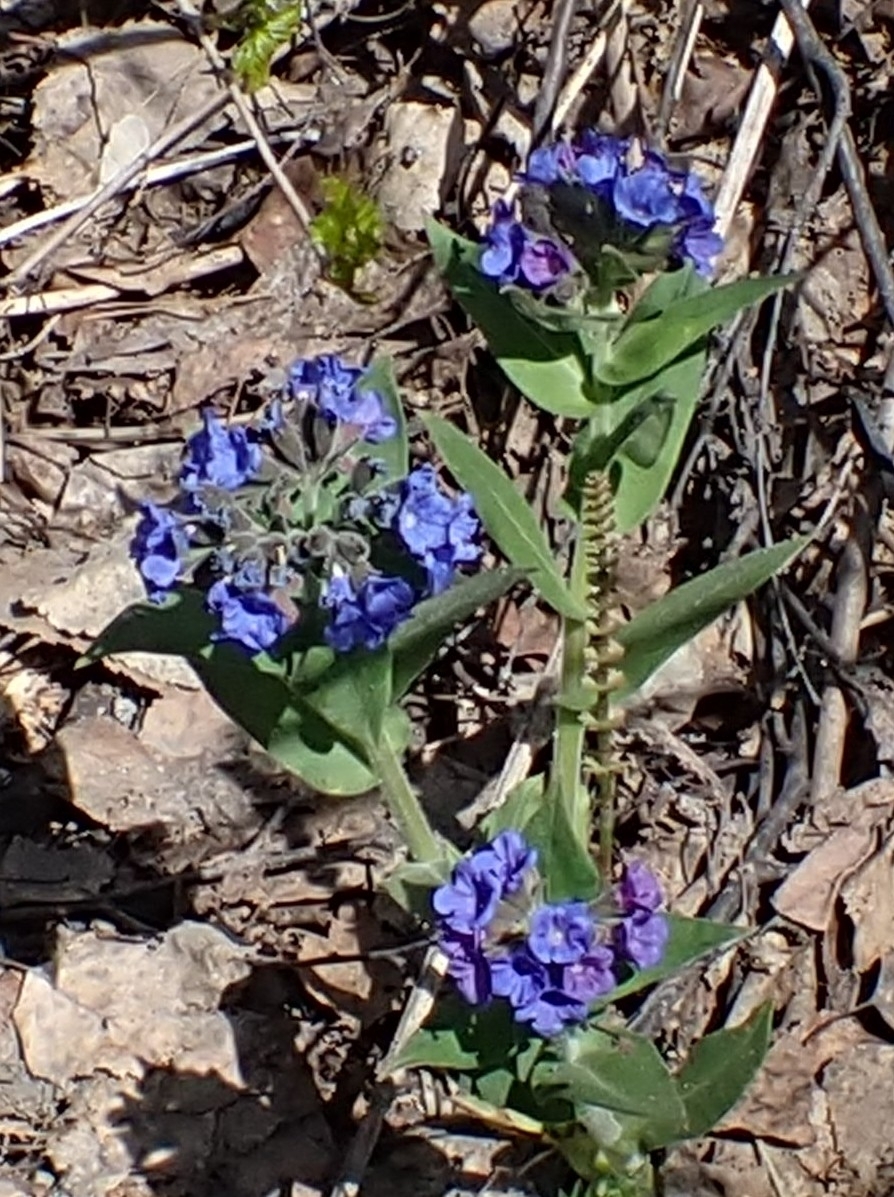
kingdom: Plantae
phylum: Tracheophyta
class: Magnoliopsida
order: Boraginales
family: Boraginaceae
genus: Pulmonaria
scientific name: Pulmonaria mollis
